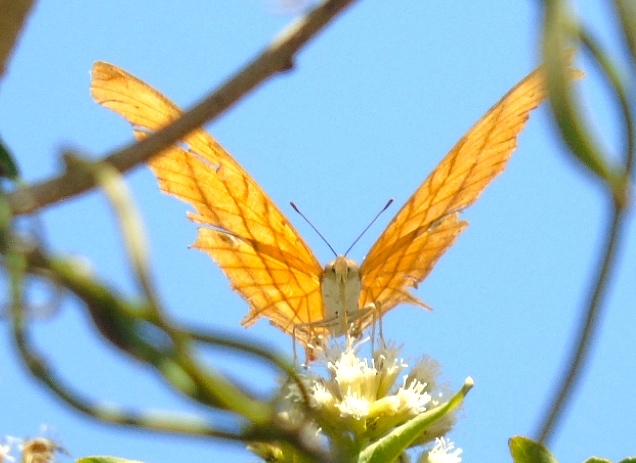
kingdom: Animalia
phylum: Arthropoda
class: Insecta
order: Lepidoptera
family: Nymphalidae
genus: Marpesia
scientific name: Marpesia petreus
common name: Red dagger wing
